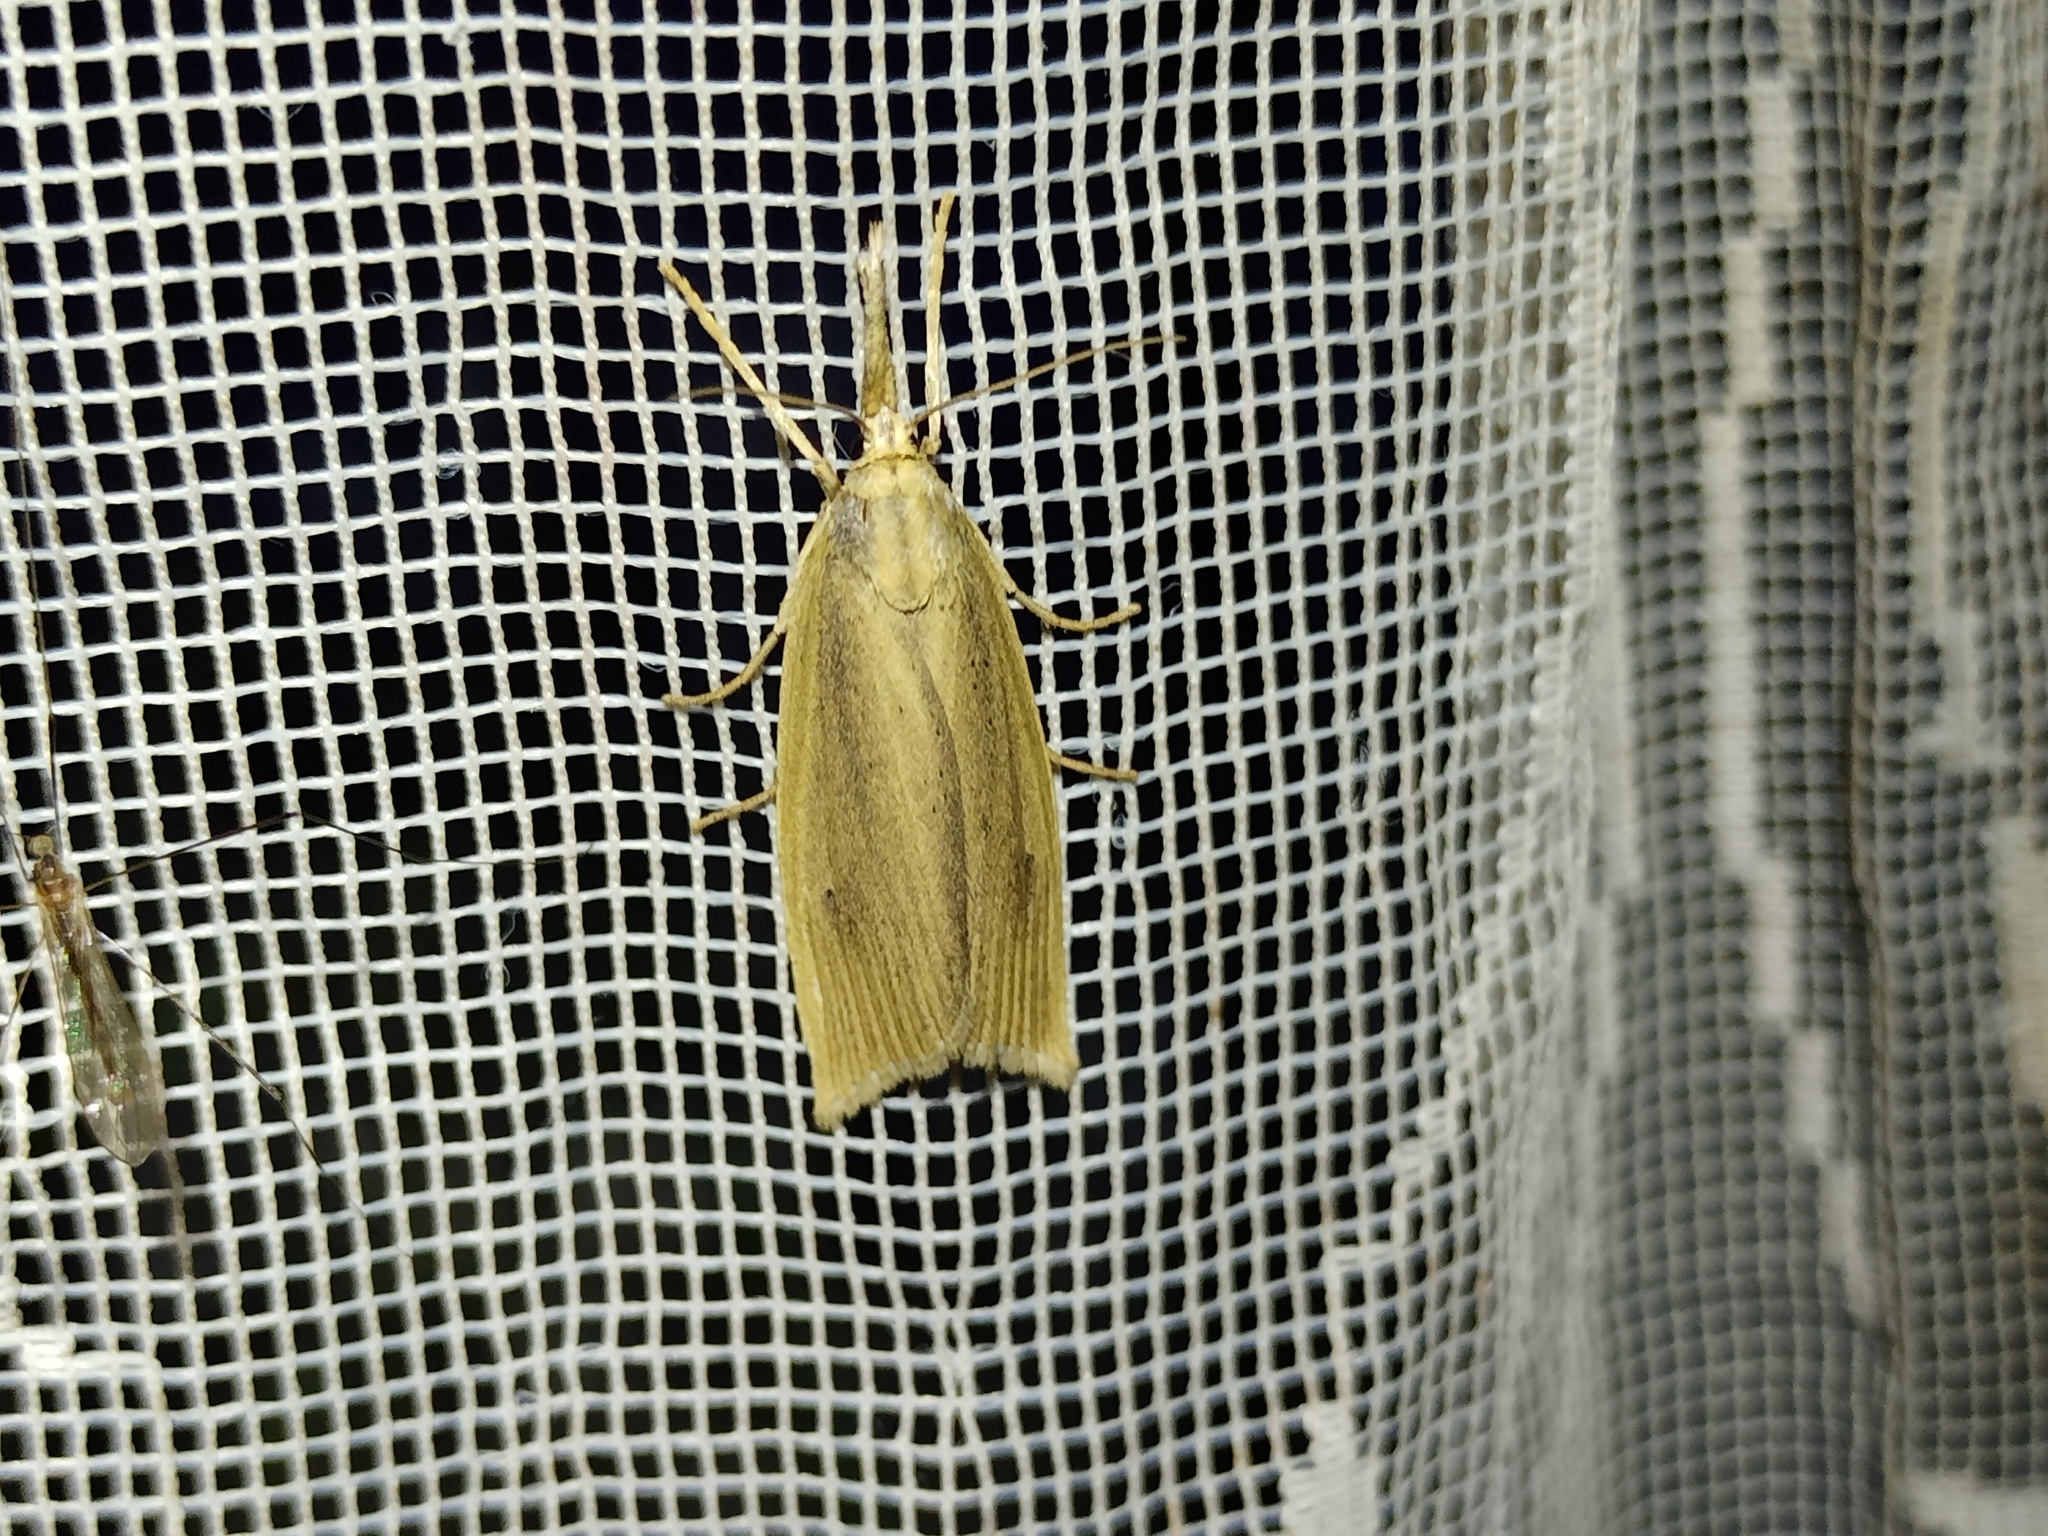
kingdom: Animalia
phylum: Arthropoda
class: Insecta
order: Lepidoptera
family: Crambidae
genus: Chilo
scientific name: Chilo phragmitella
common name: Reed veneer
